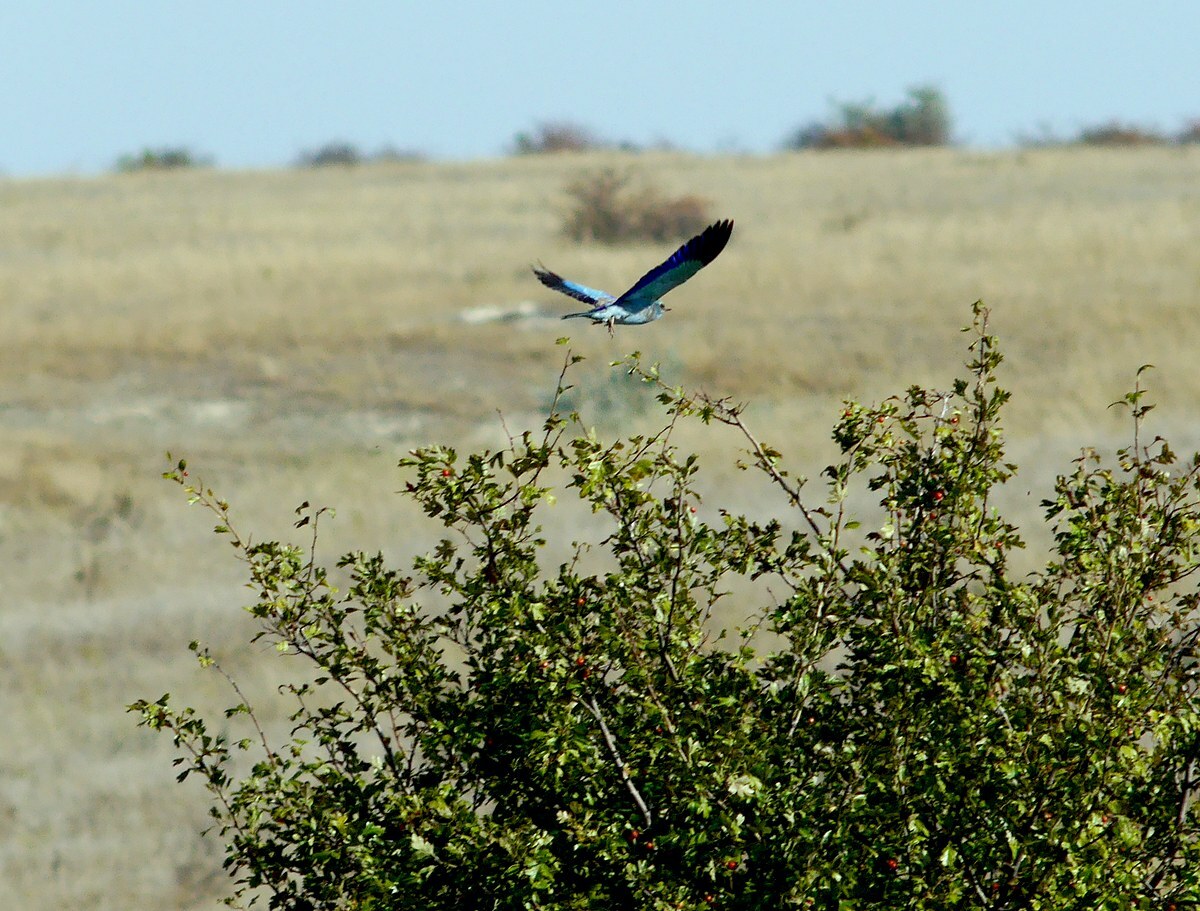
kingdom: Animalia
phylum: Chordata
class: Aves
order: Coraciiformes
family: Coraciidae
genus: Coracias
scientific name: Coracias garrulus
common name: European roller
